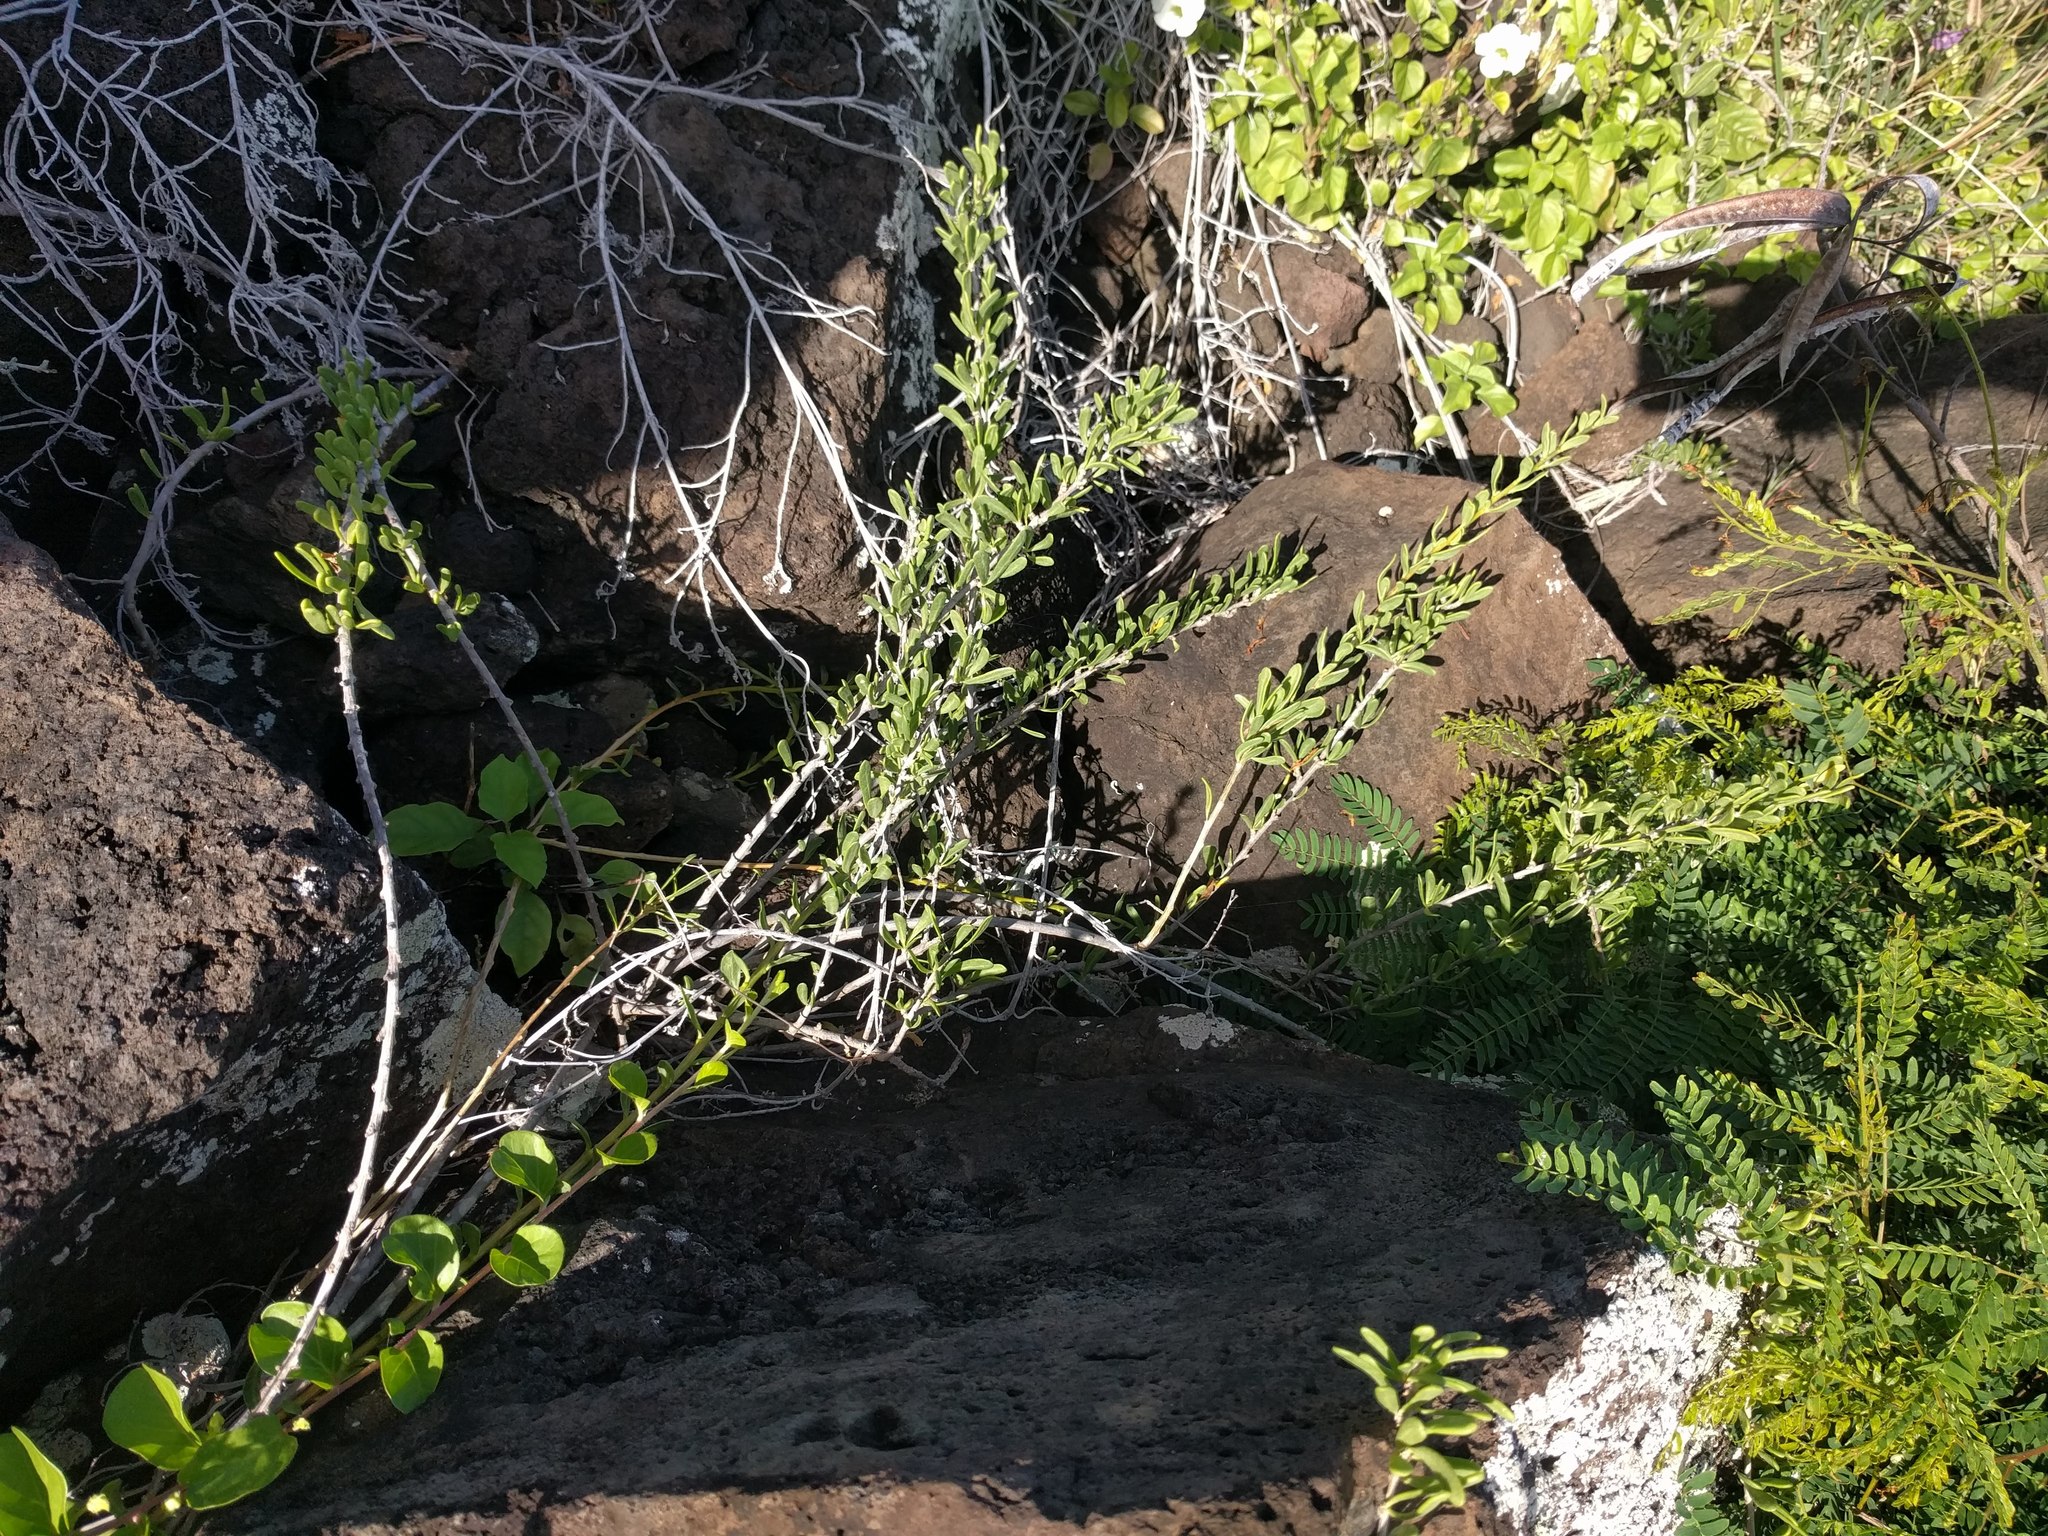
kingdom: Plantae
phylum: Tracheophyta
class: Magnoliopsida
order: Solanales
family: Solanaceae
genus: Lycium
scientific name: Lycium sandwicense
